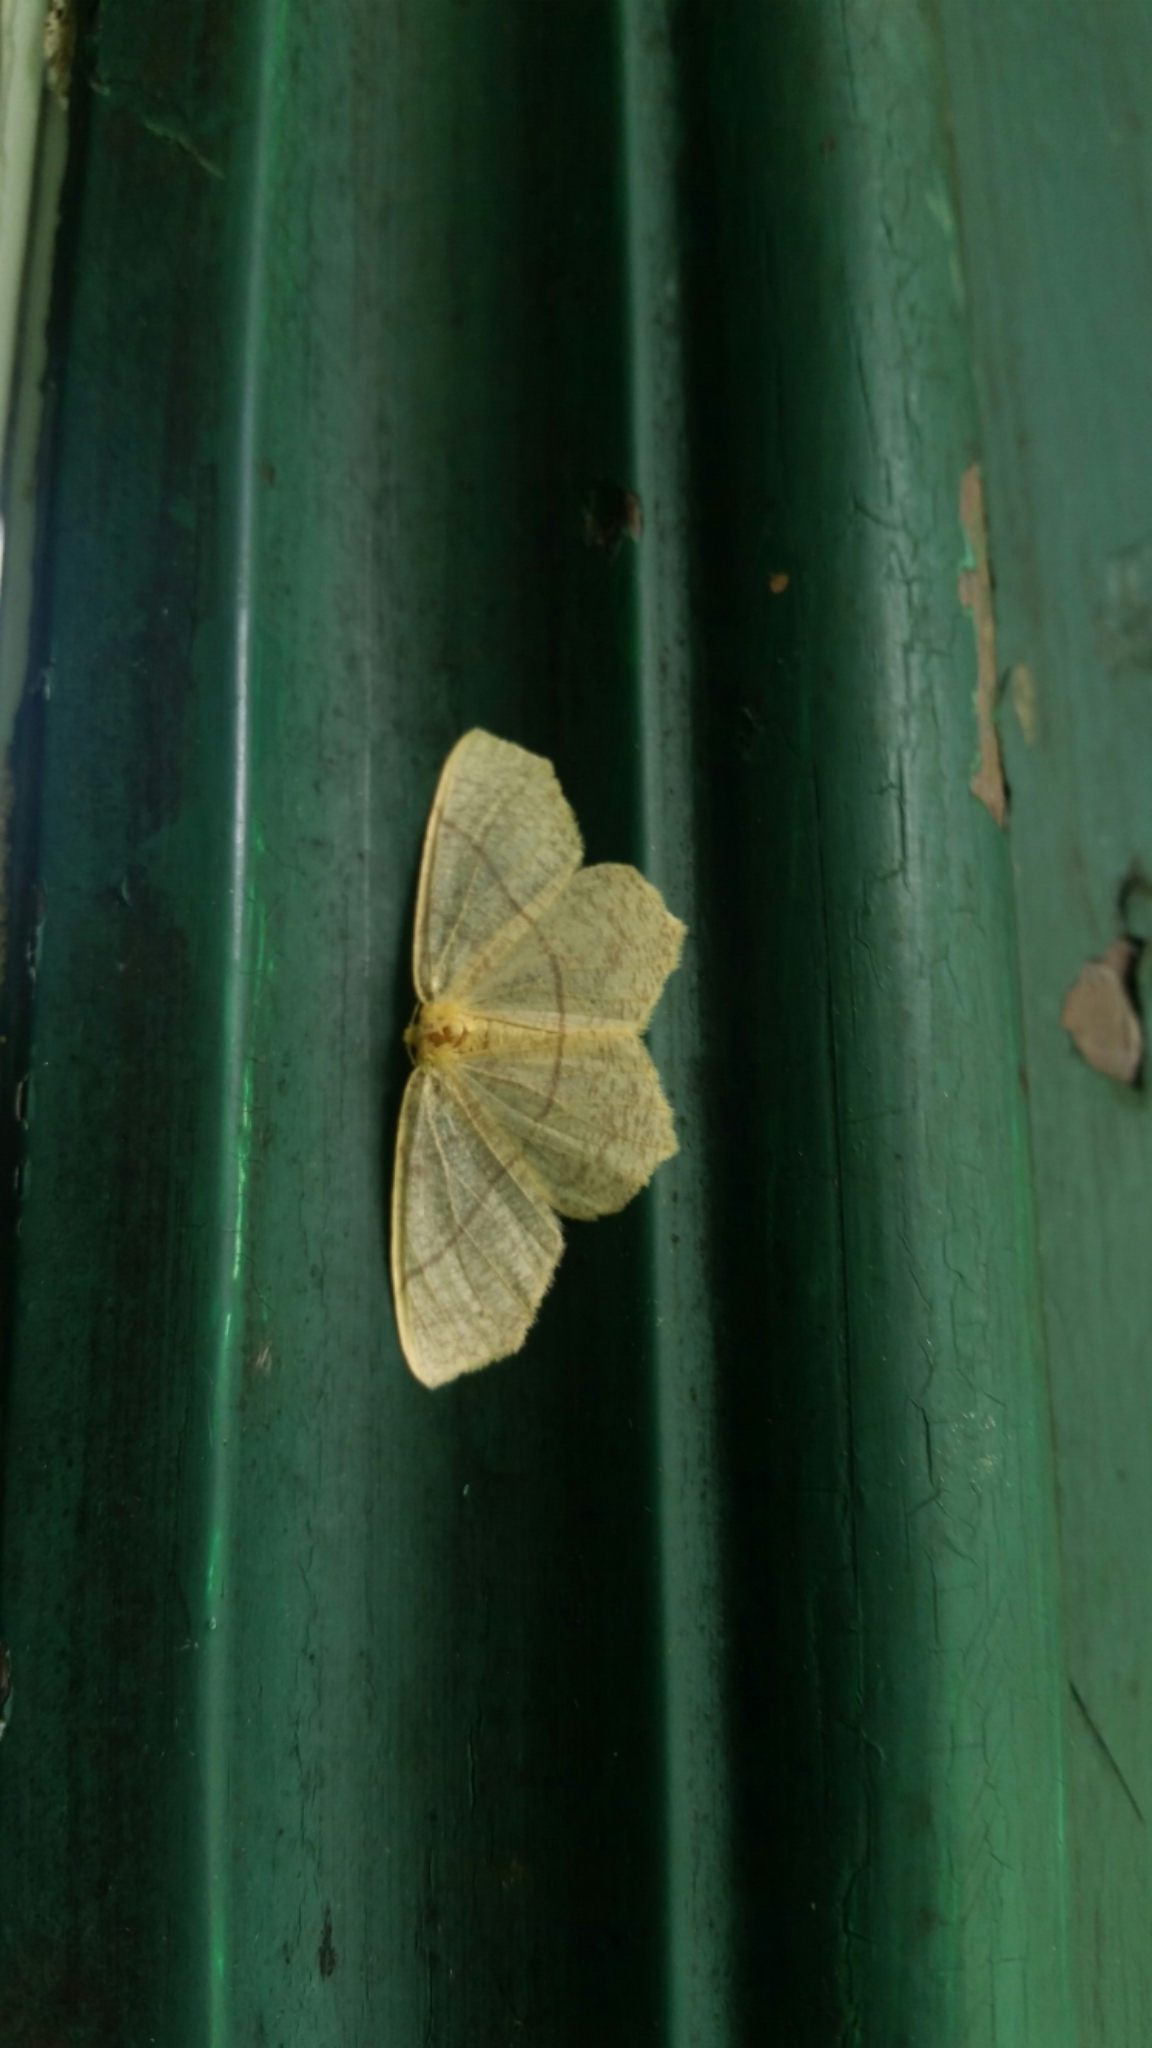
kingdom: Animalia
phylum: Arthropoda
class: Insecta
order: Lepidoptera
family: Geometridae
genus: Besma
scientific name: Besma quercivoraria
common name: Oak besma
